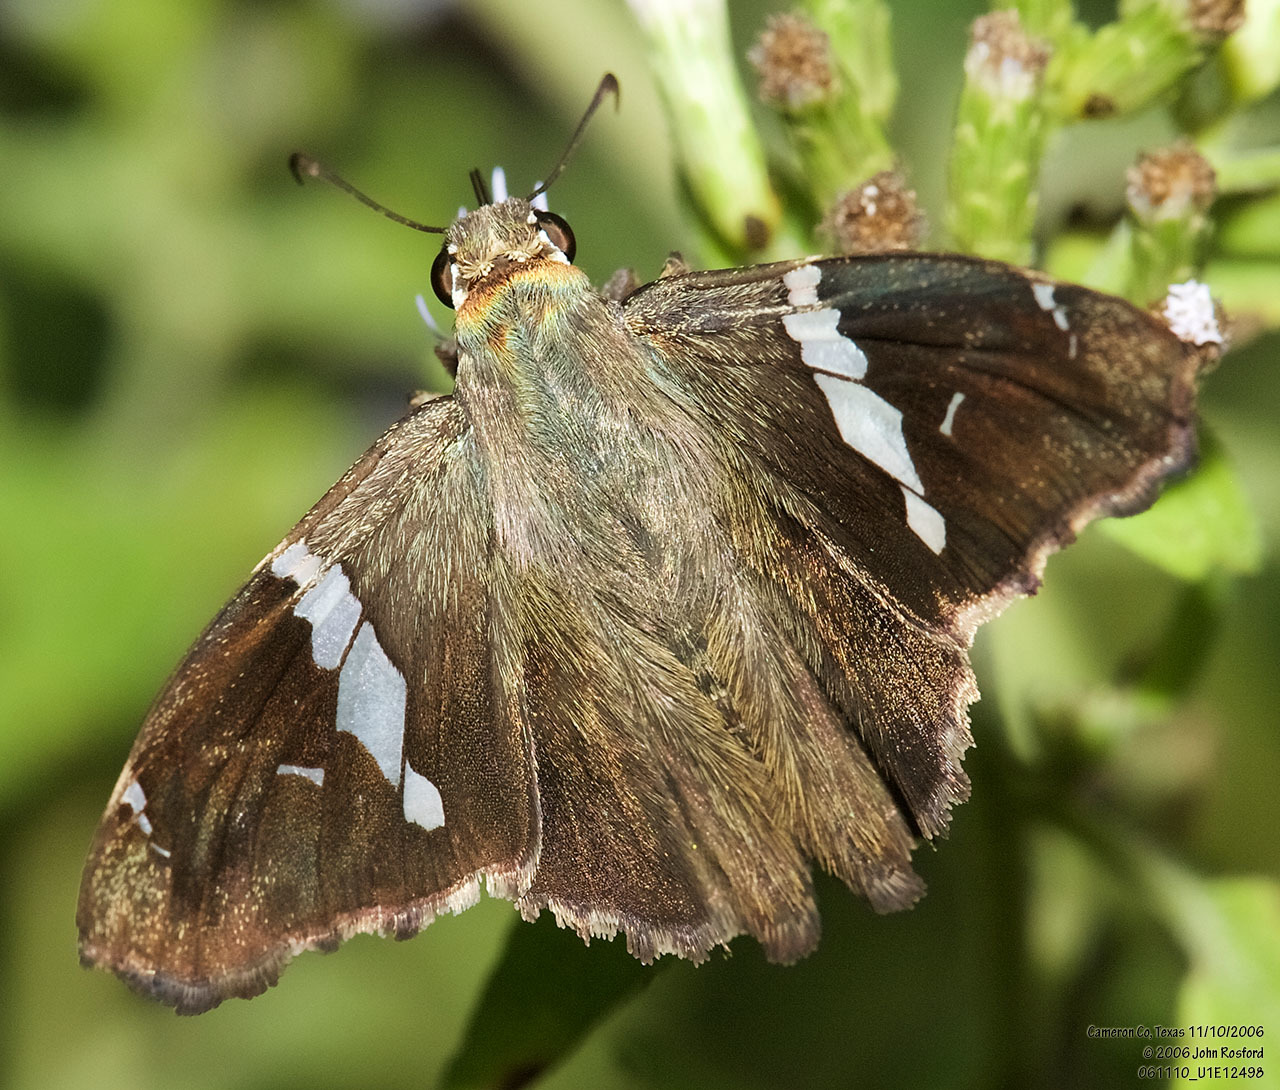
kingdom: Animalia
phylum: Arthropoda
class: Insecta
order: Lepidoptera
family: Hesperiidae
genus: Spathilepia
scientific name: Spathilepia clonius
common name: Falcate skipper
